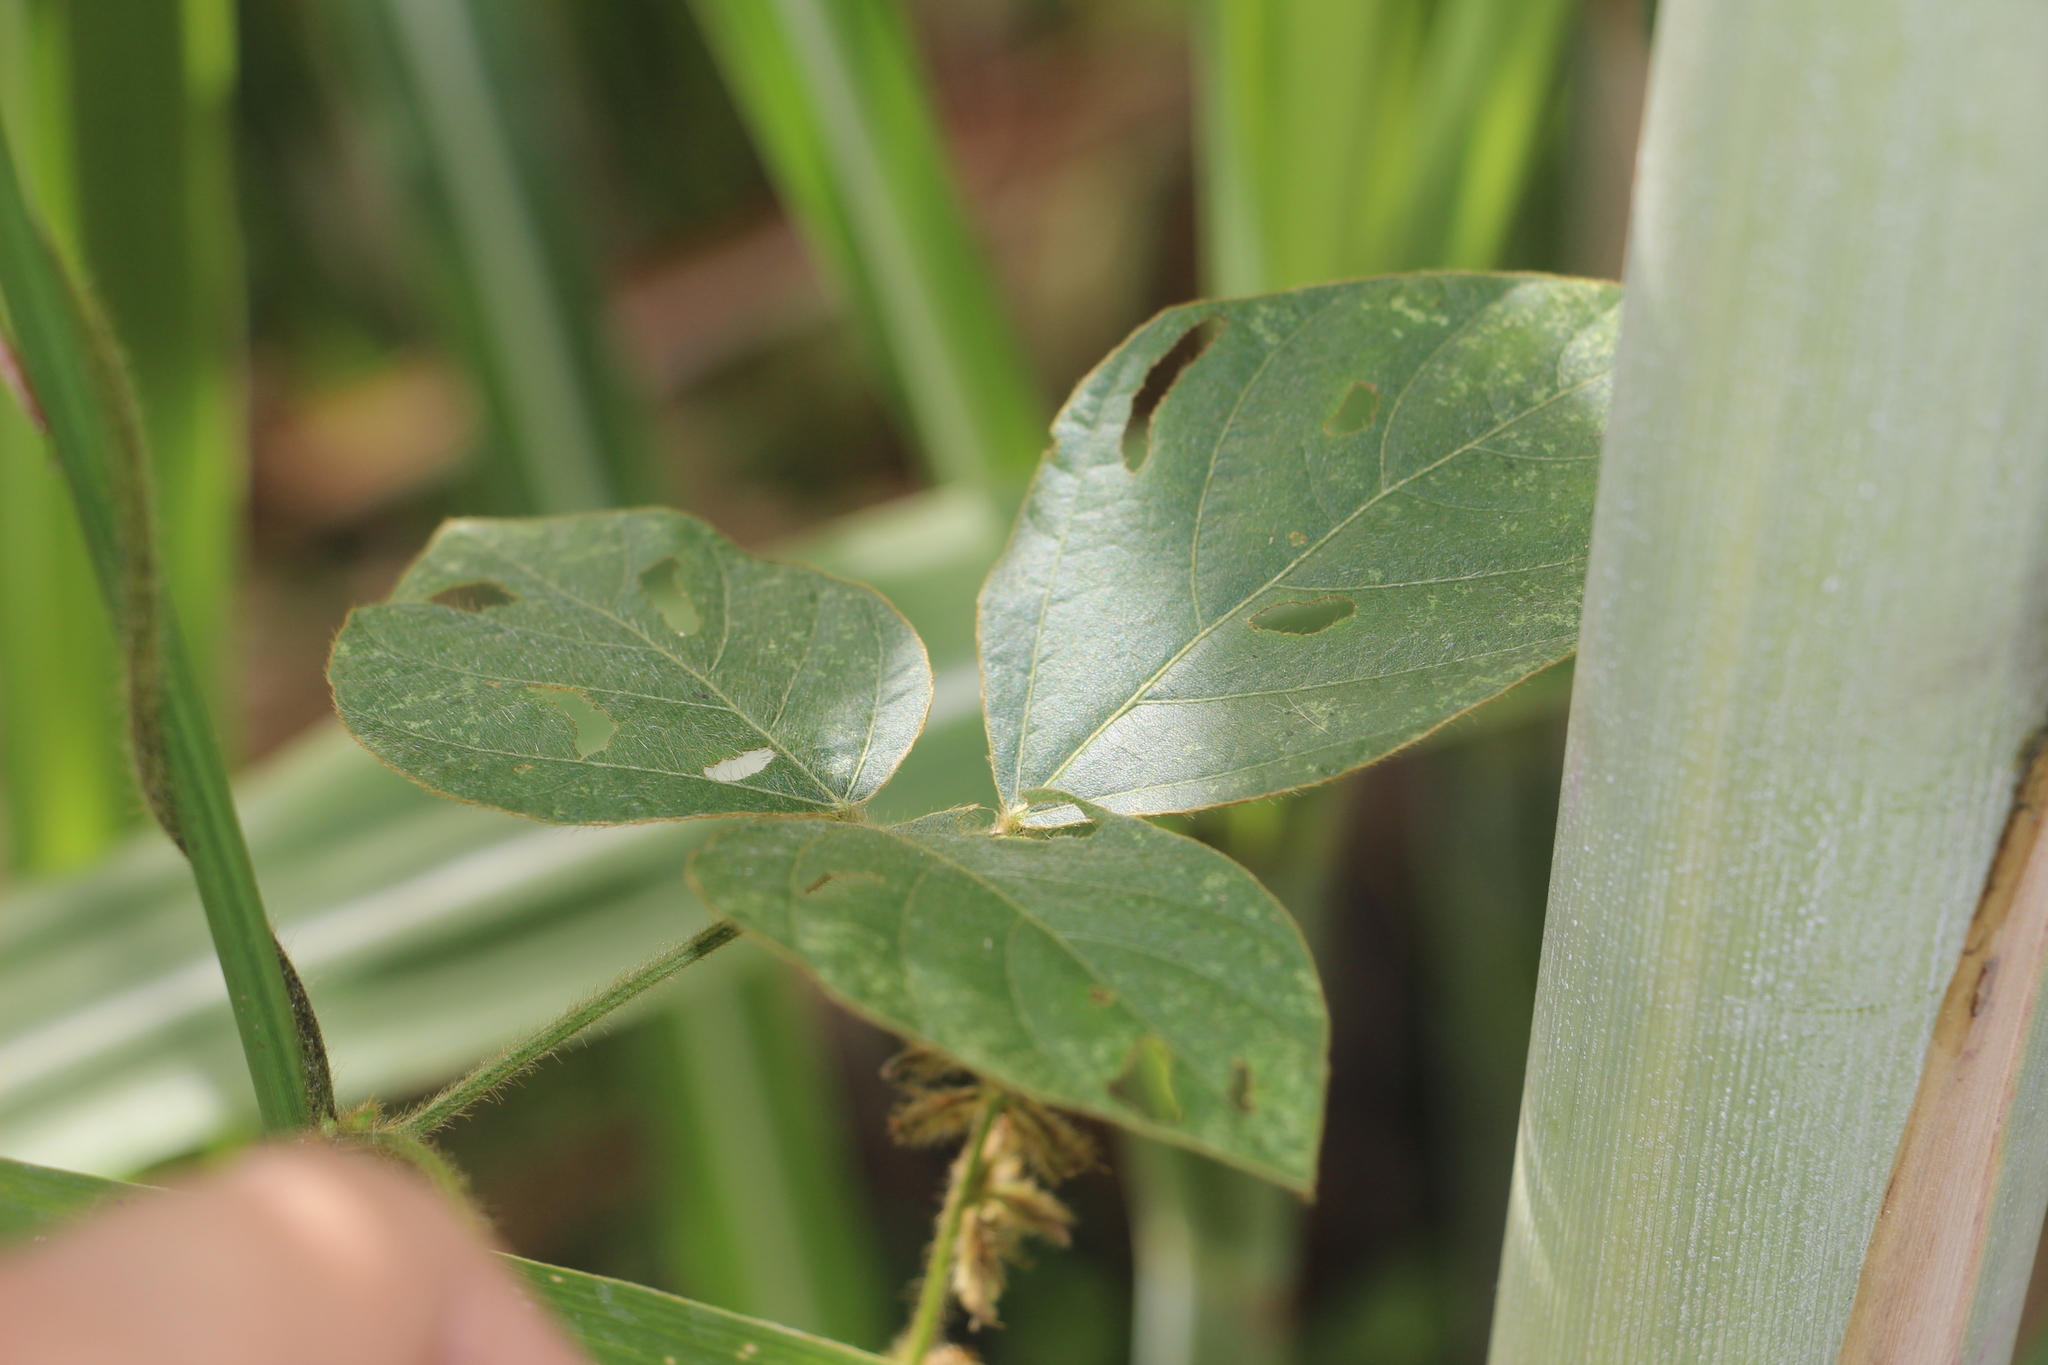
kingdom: Plantae
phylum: Tracheophyta
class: Magnoliopsida
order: Fabales
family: Fabaceae
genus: Calopogonium
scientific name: Calopogonium mucunoides
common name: Calopo
